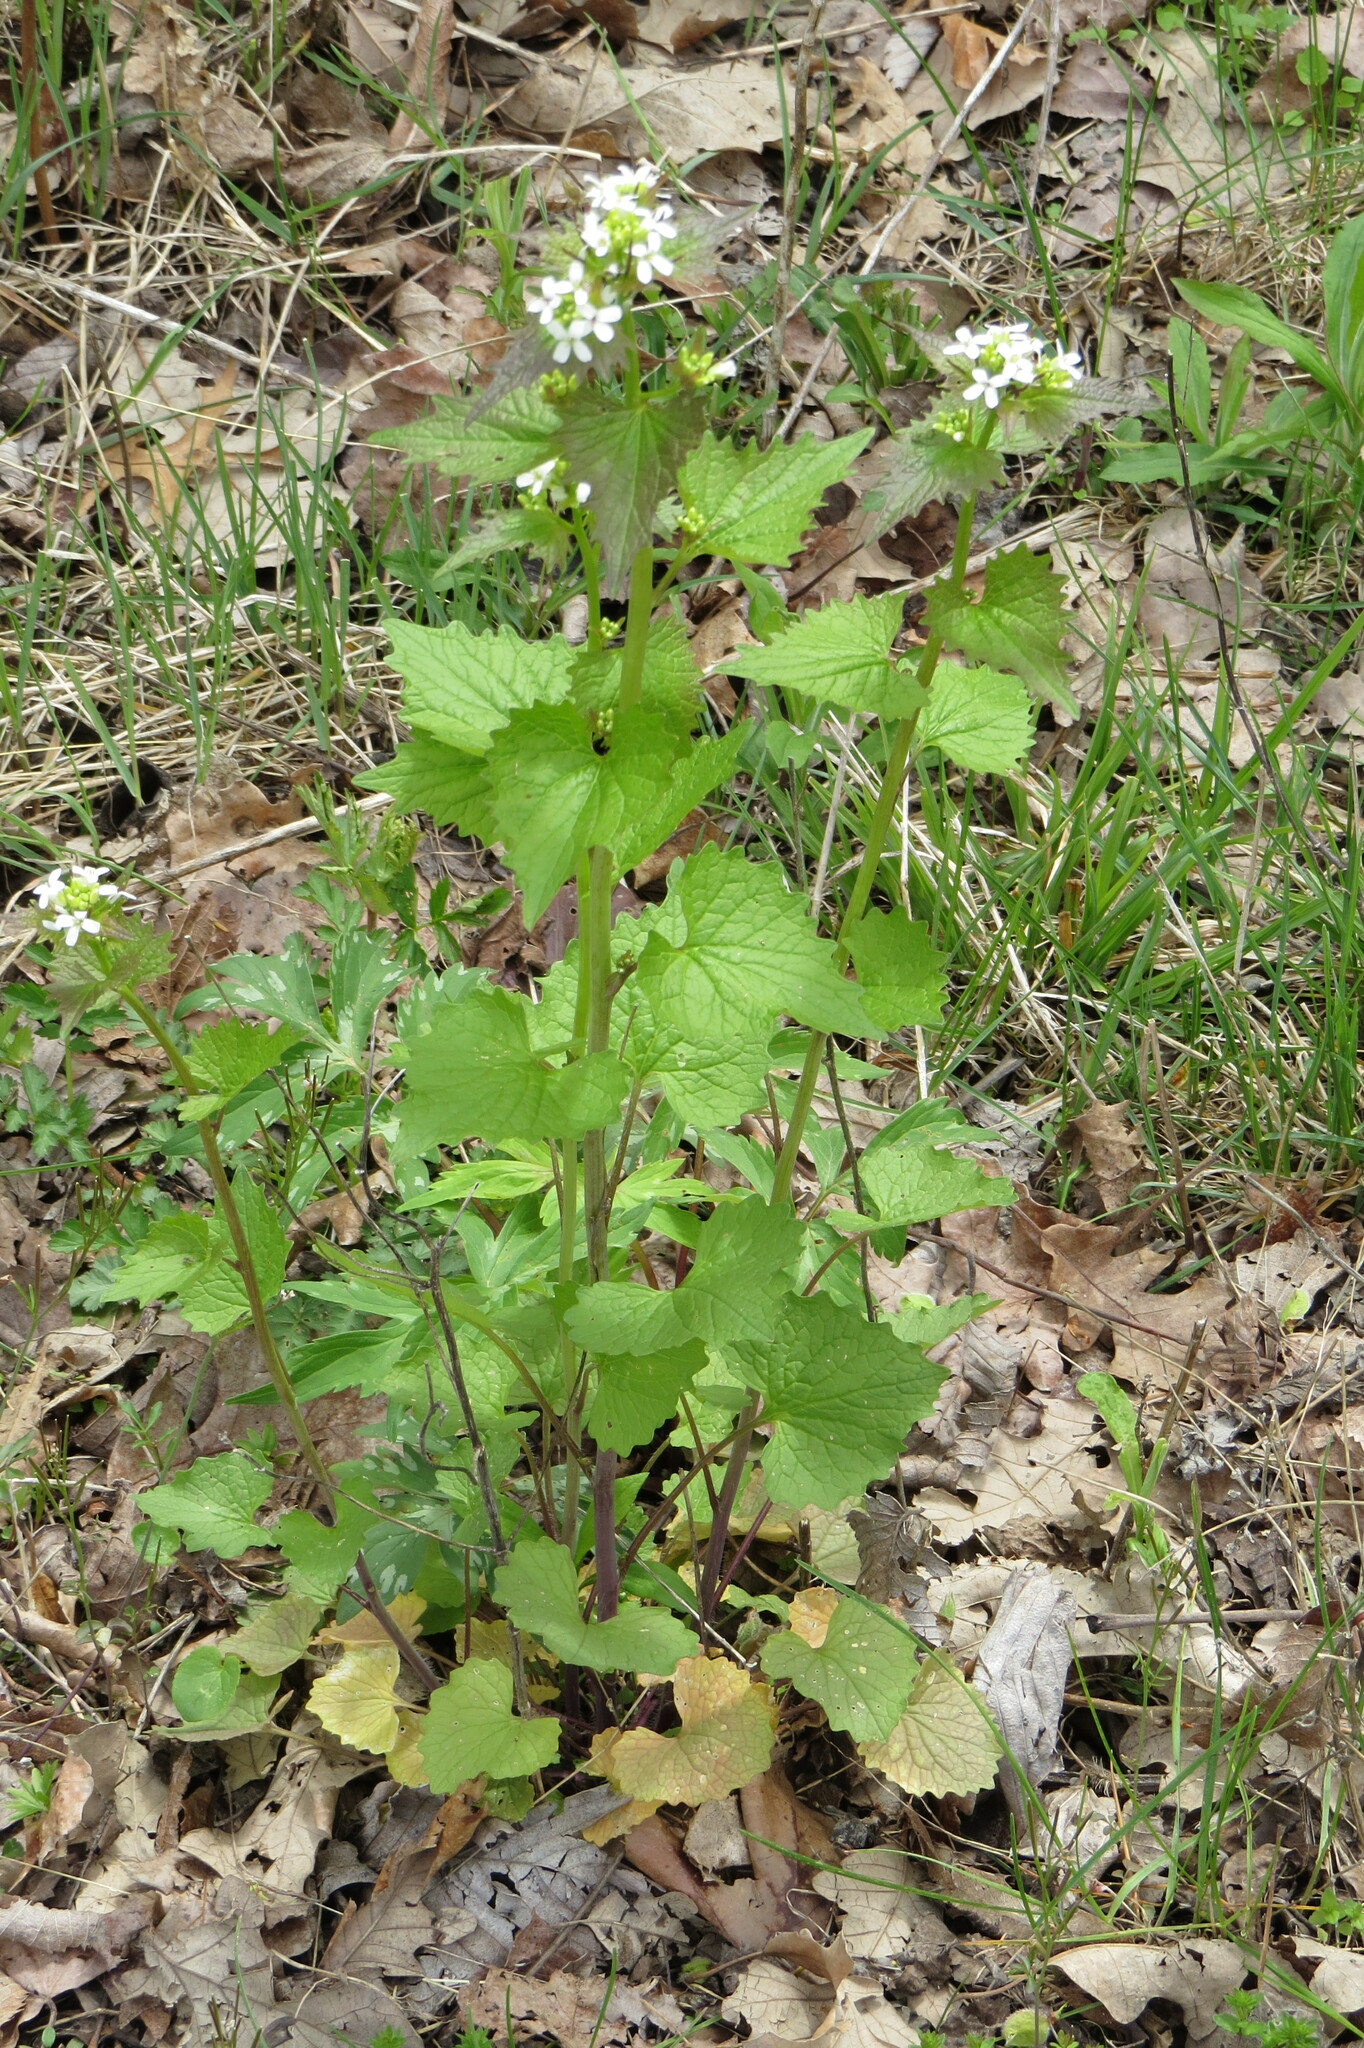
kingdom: Plantae
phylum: Tracheophyta
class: Magnoliopsida
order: Brassicales
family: Brassicaceae
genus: Alliaria
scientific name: Alliaria petiolata
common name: Garlic mustard
